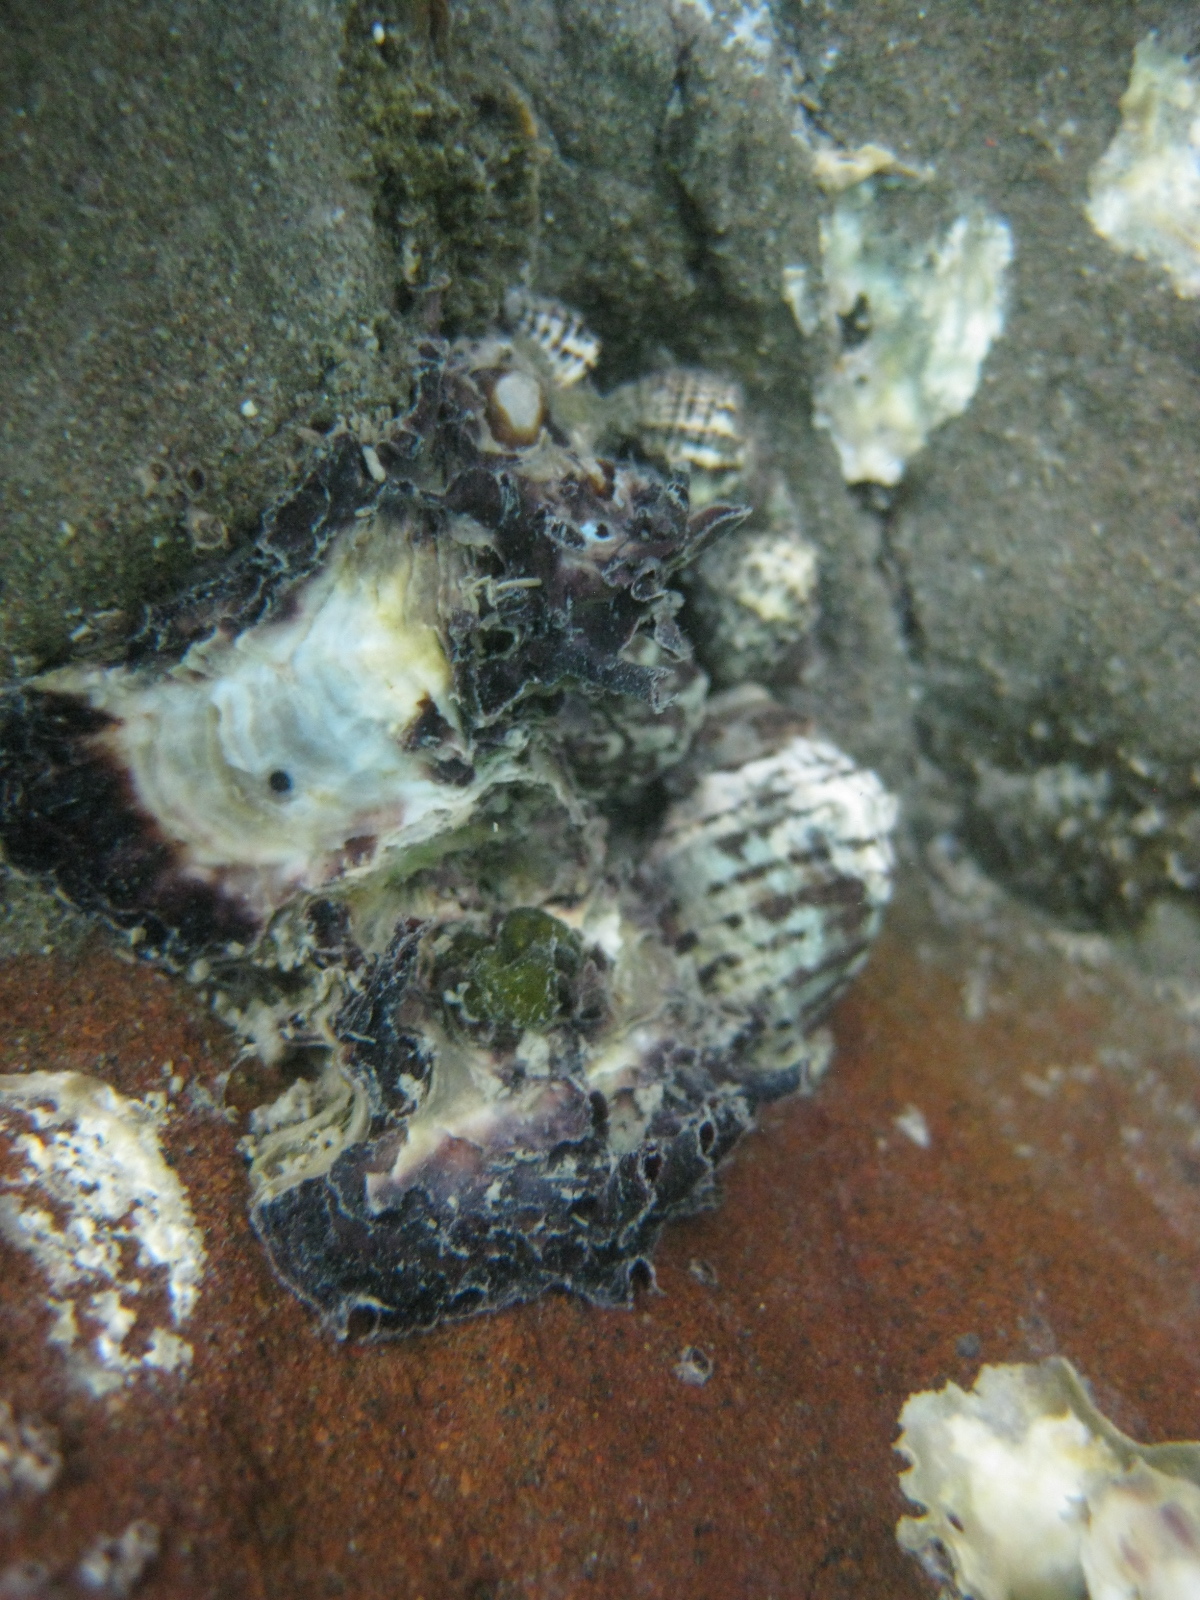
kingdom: Animalia
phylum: Mollusca
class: Bivalvia
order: Ostreida
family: Ostreidae
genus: Magallana
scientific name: Magallana gigas
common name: Pacific oyster
